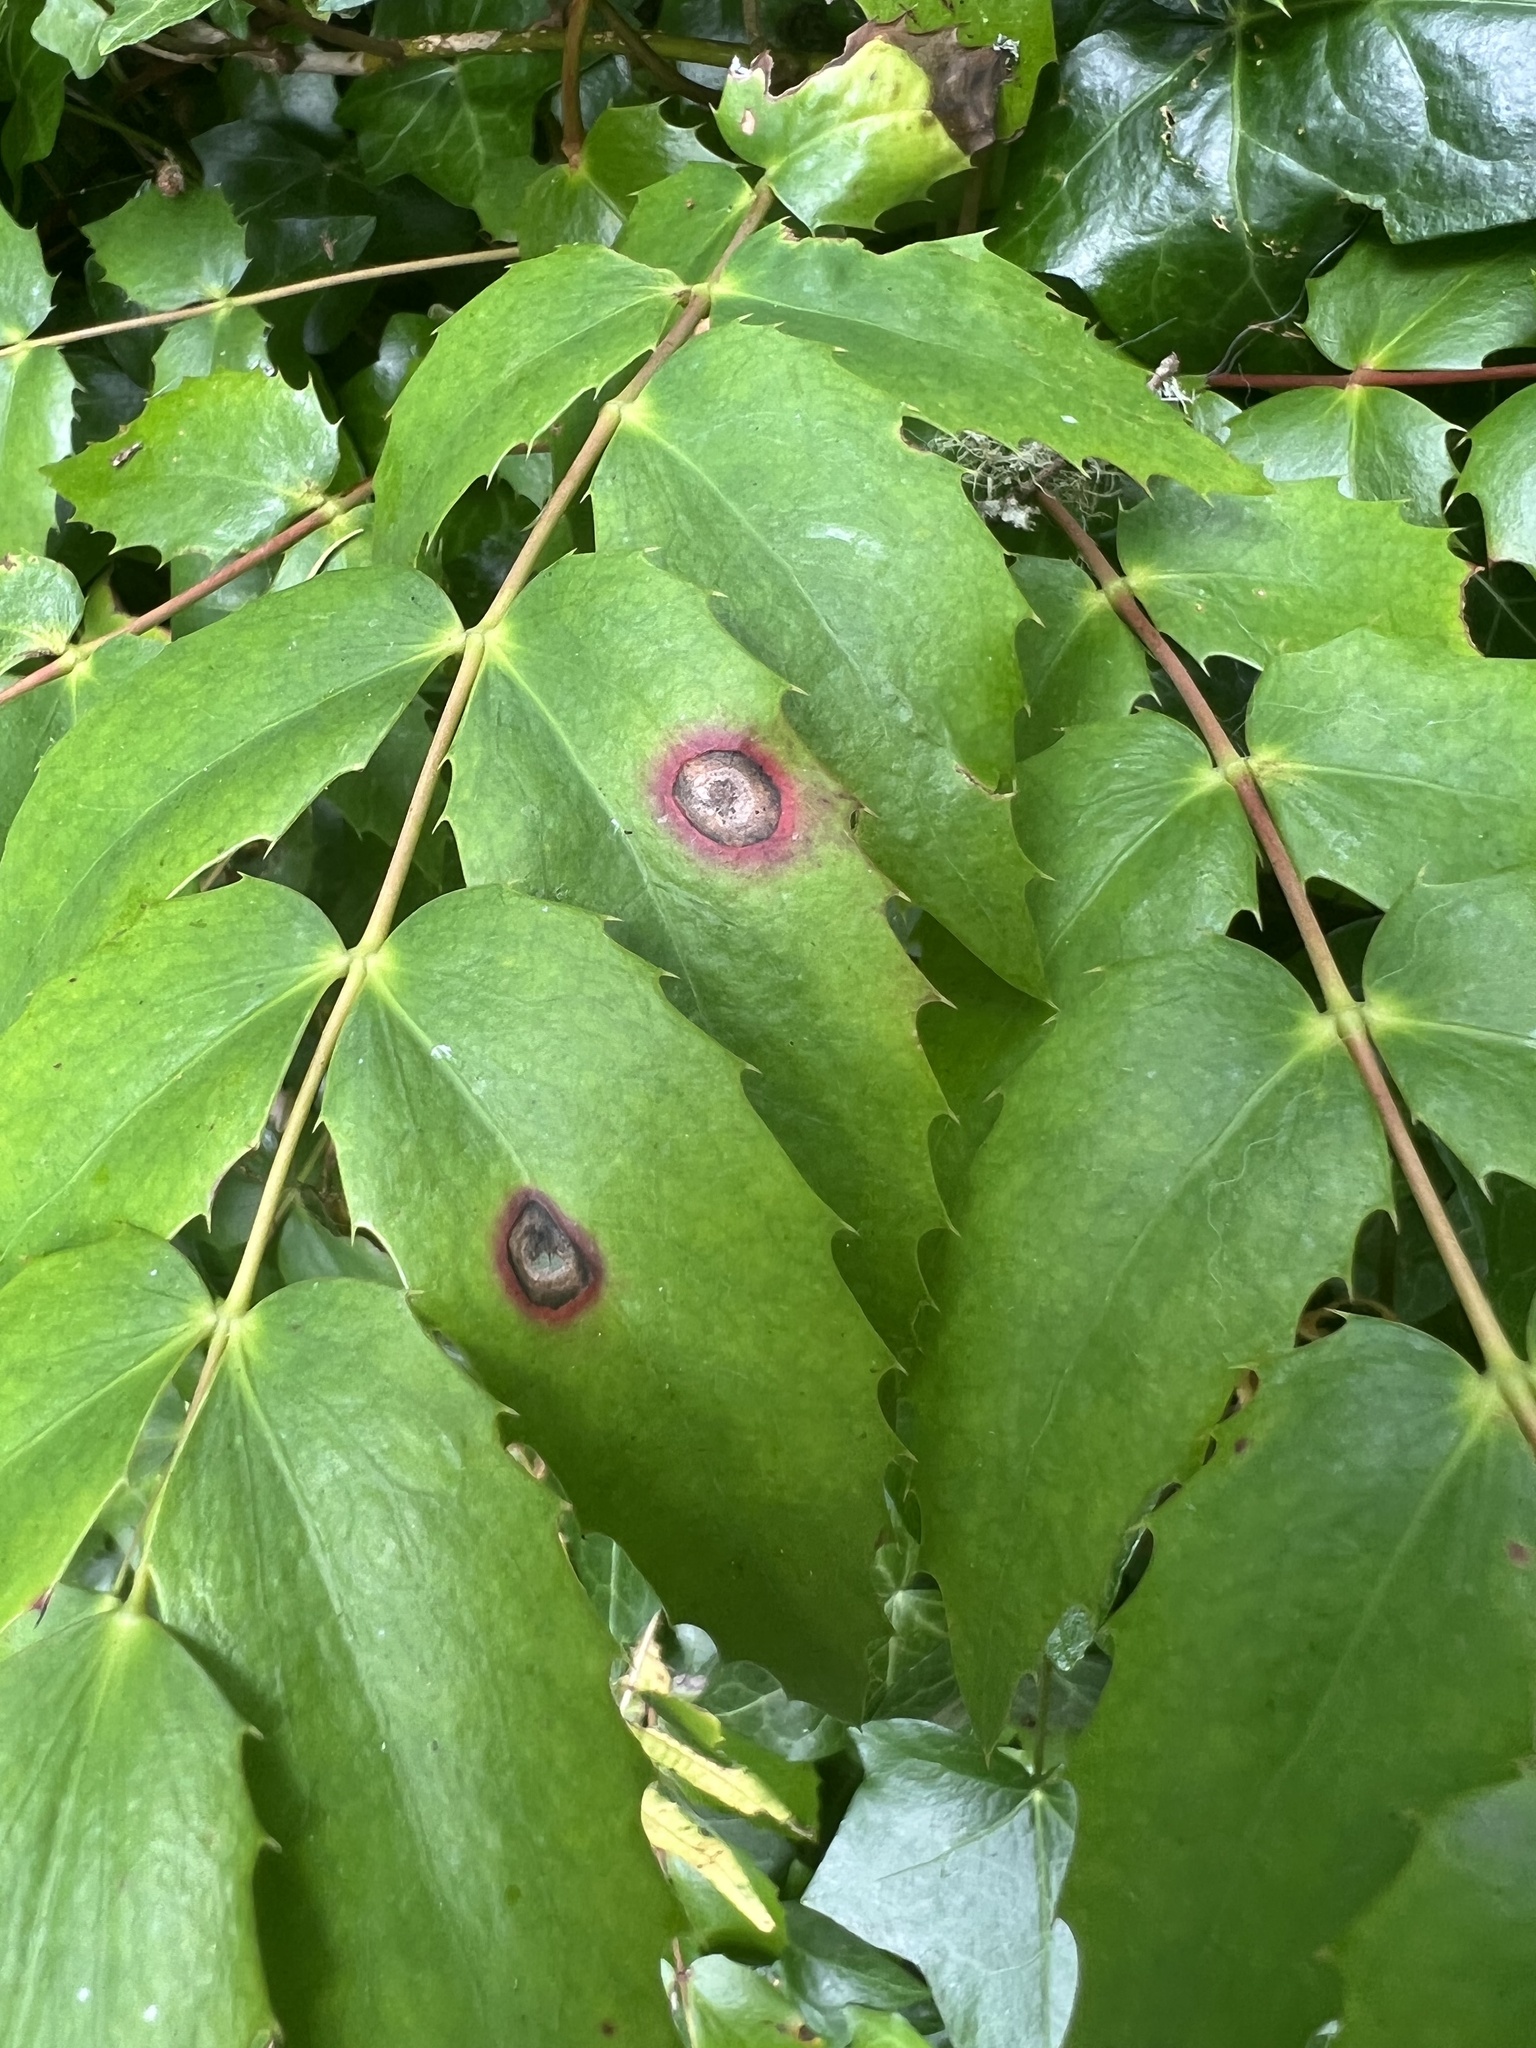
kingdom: Plantae
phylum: Tracheophyta
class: Magnoliopsida
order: Ranunculales
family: Berberidaceae
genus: Mahonia
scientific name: Mahonia nervosa
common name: Cascade oregon-grape
